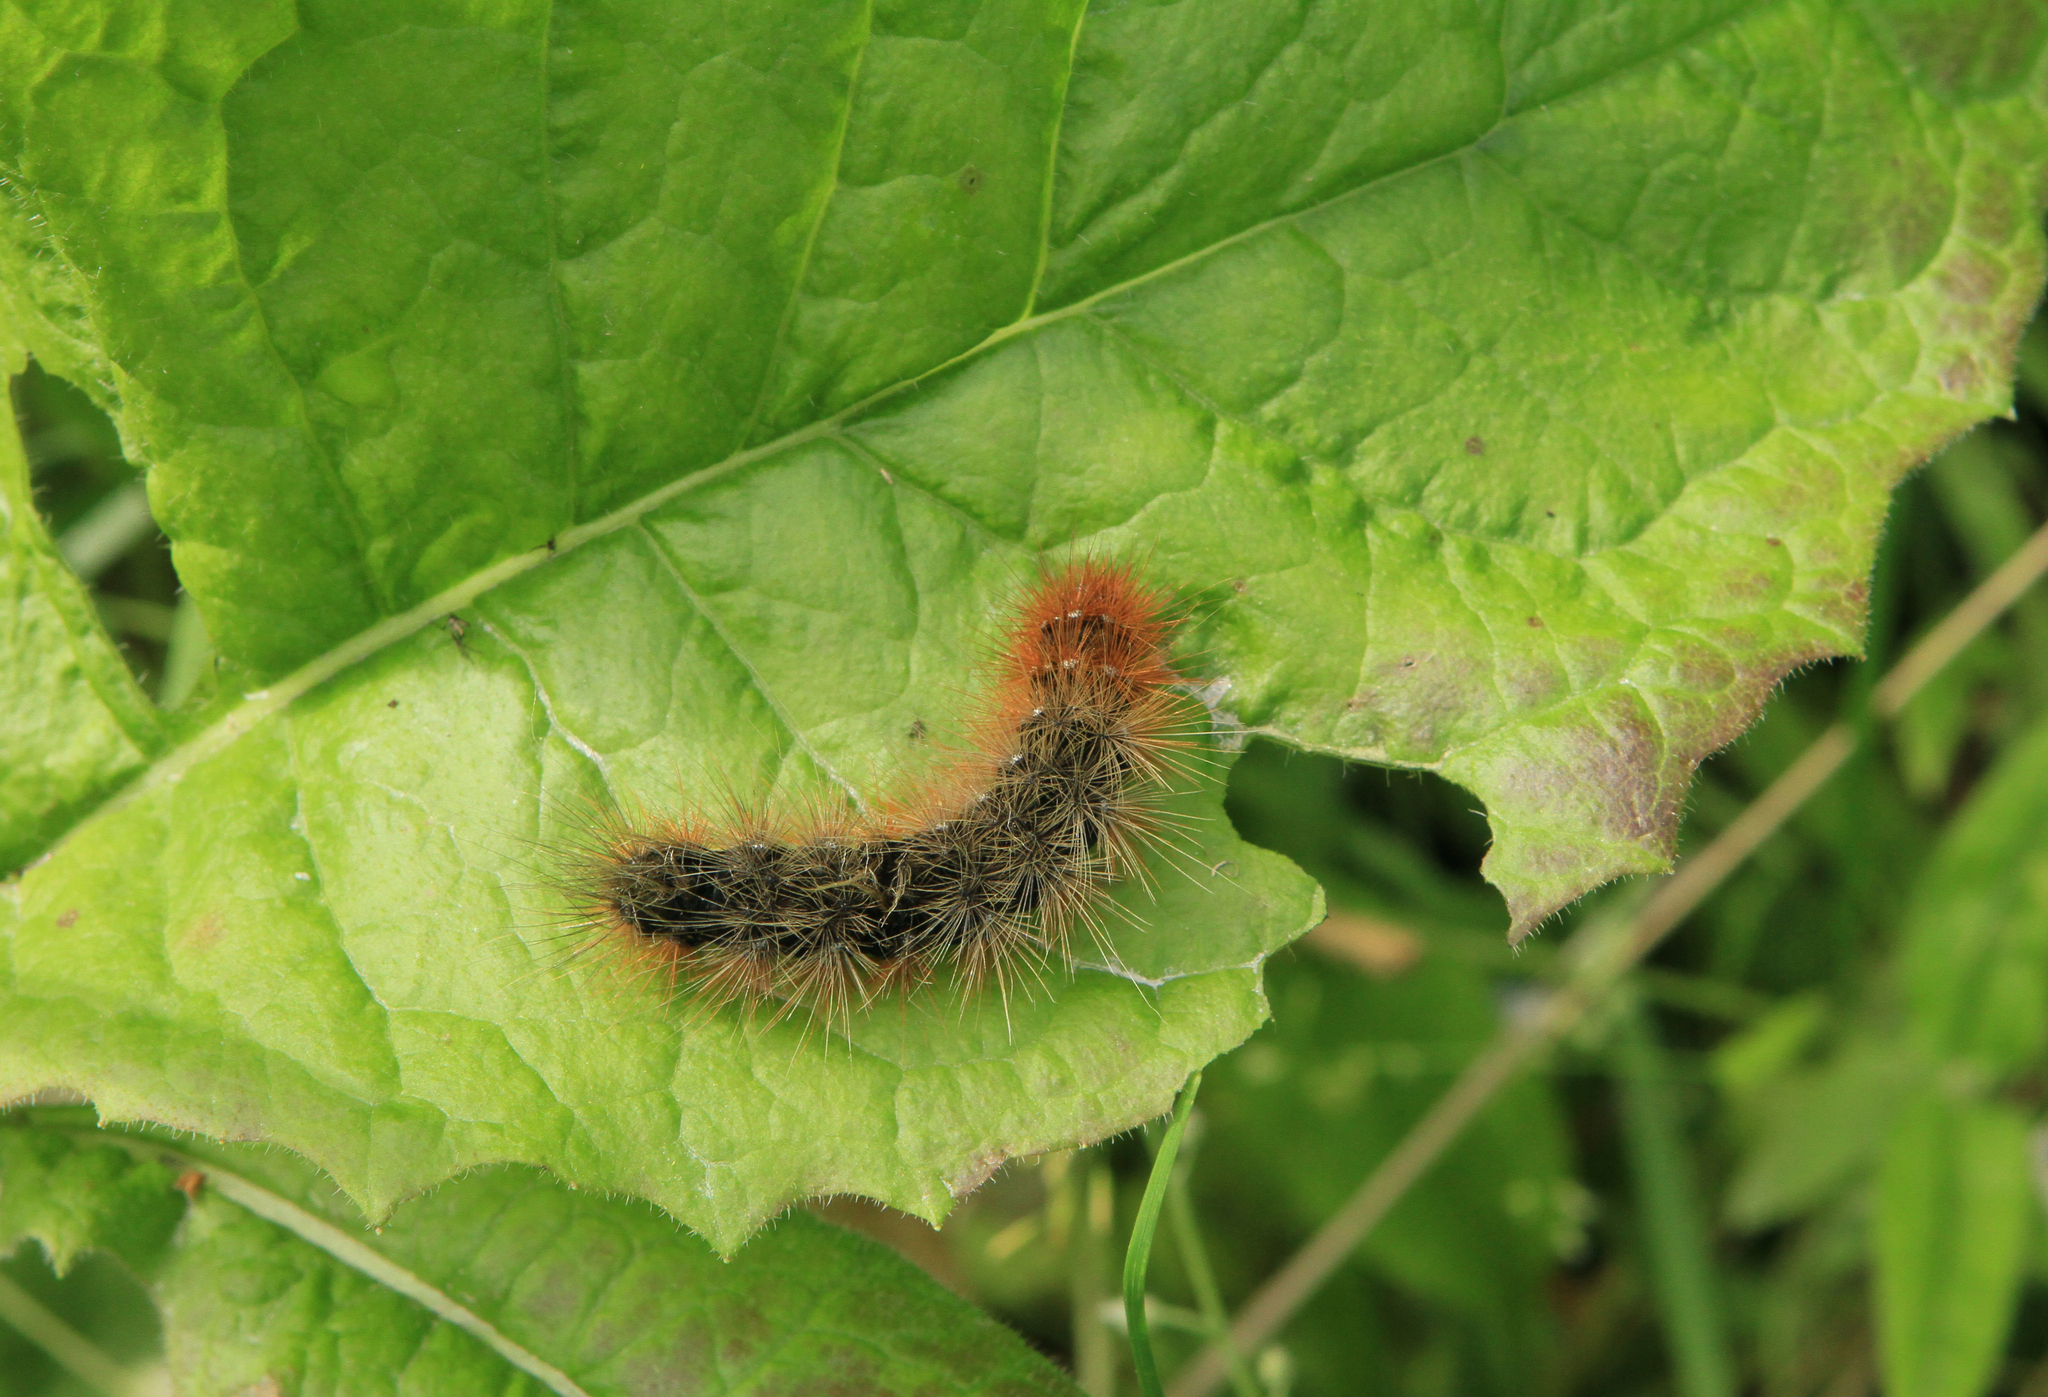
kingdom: Animalia
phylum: Arthropoda
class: Insecta
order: Lepidoptera
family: Erebidae
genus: Arctia
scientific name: Arctia caja
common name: Garden tiger
